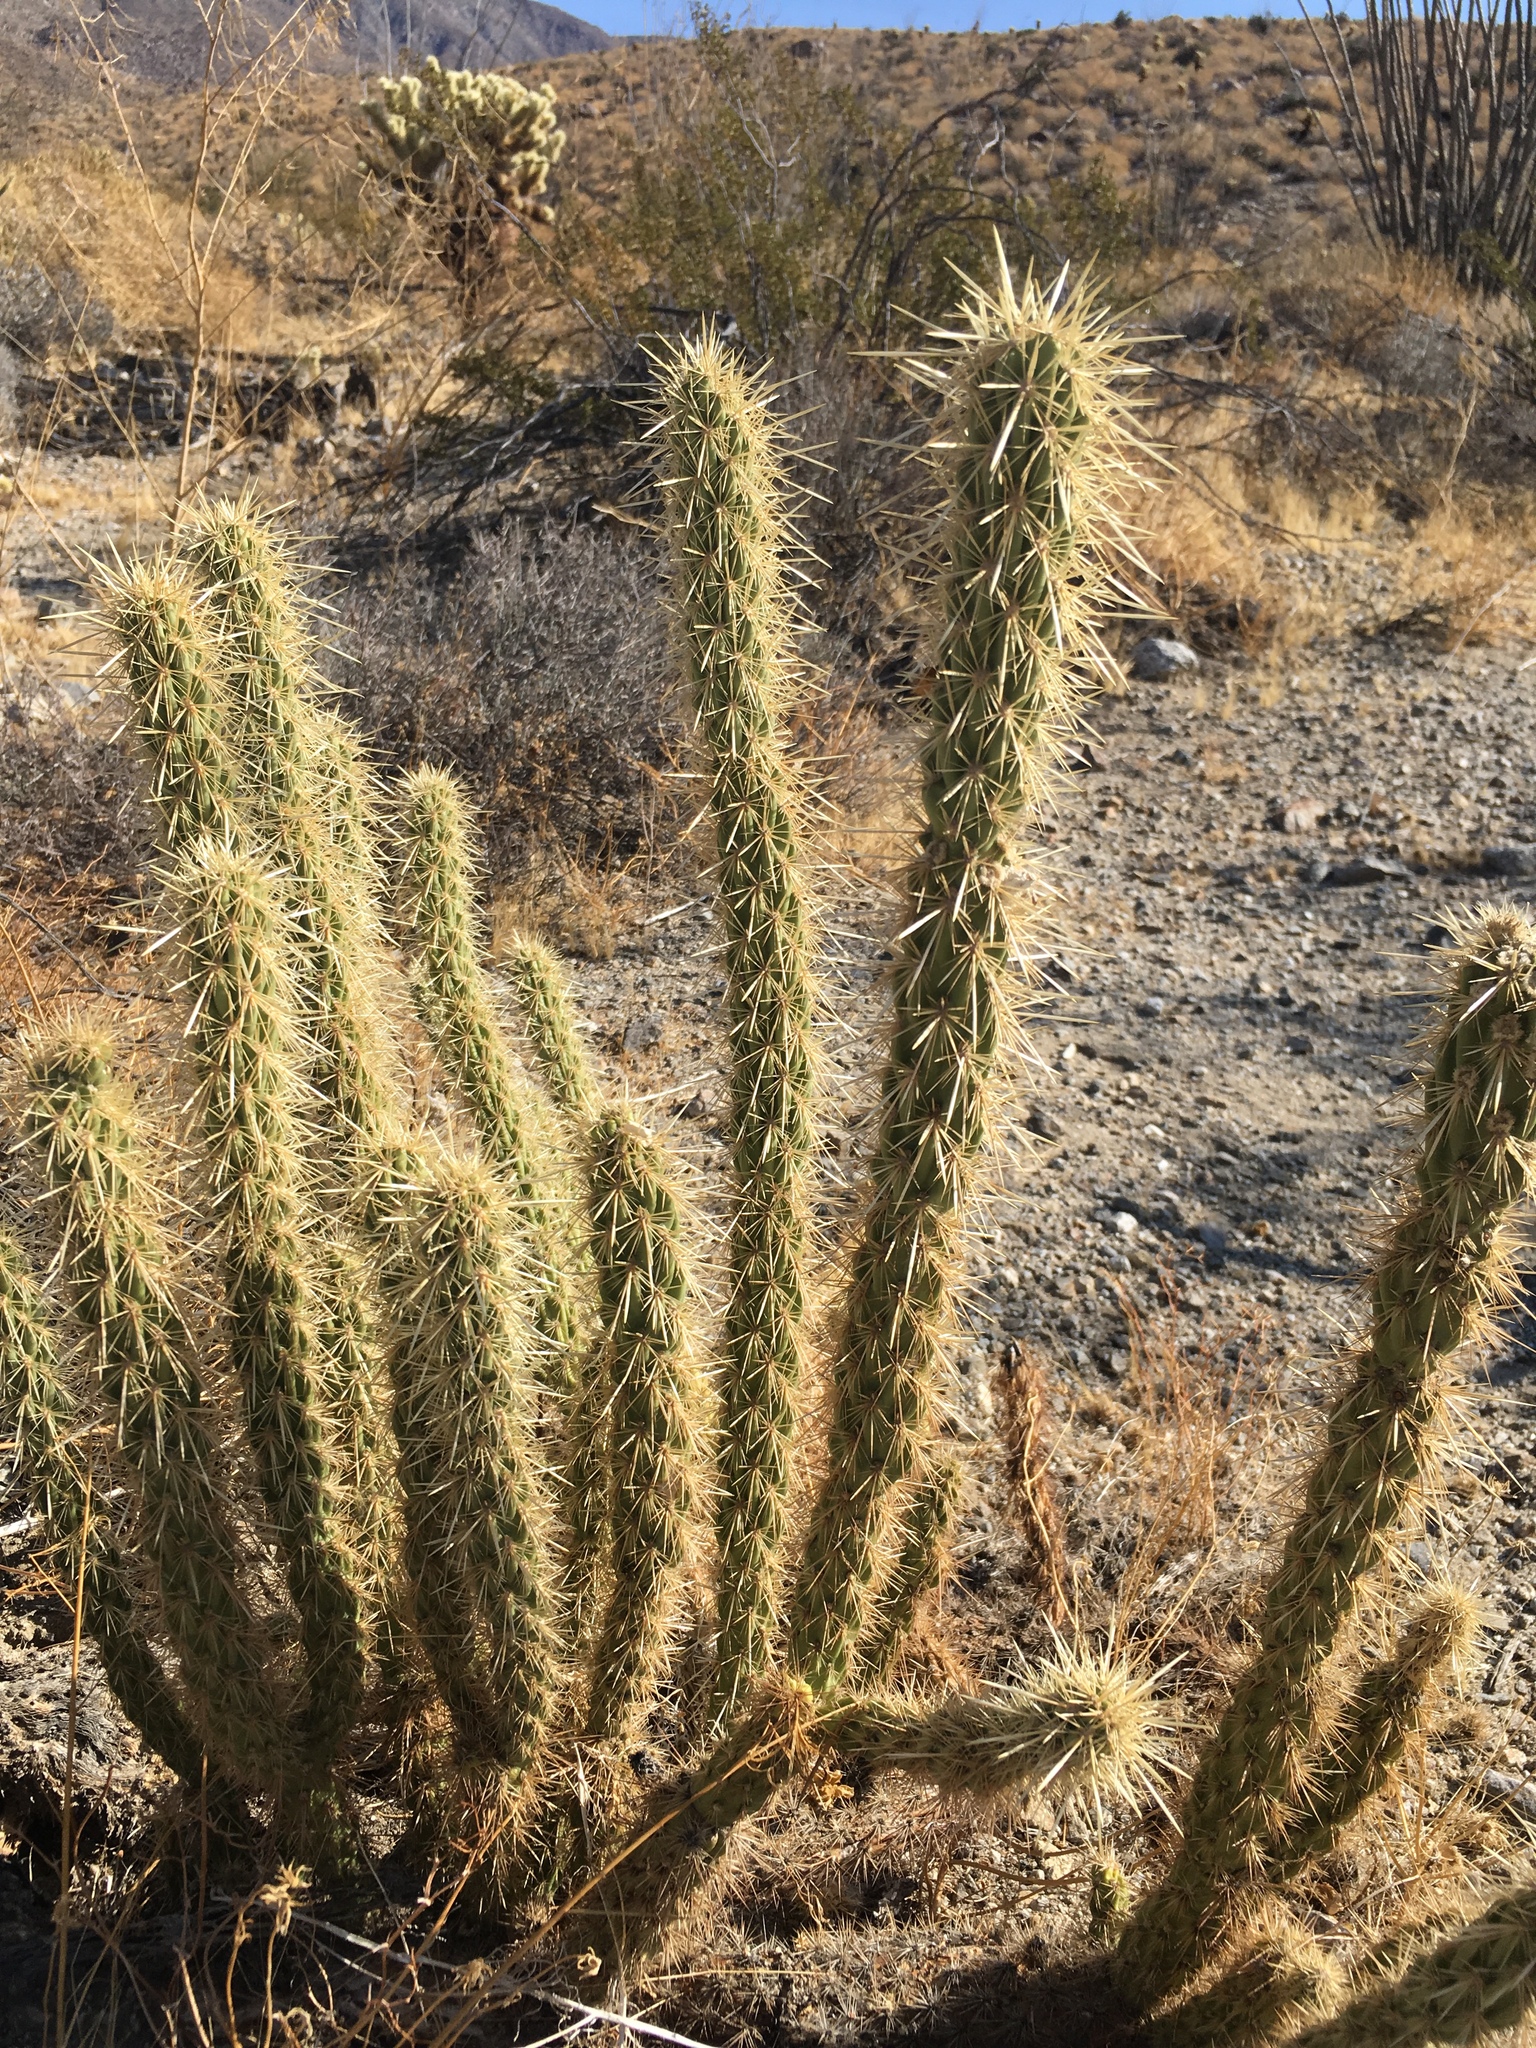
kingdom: Plantae
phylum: Tracheophyta
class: Magnoliopsida
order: Caryophyllales
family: Cactaceae
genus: Cylindropuntia
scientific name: Cylindropuntia ganderi
